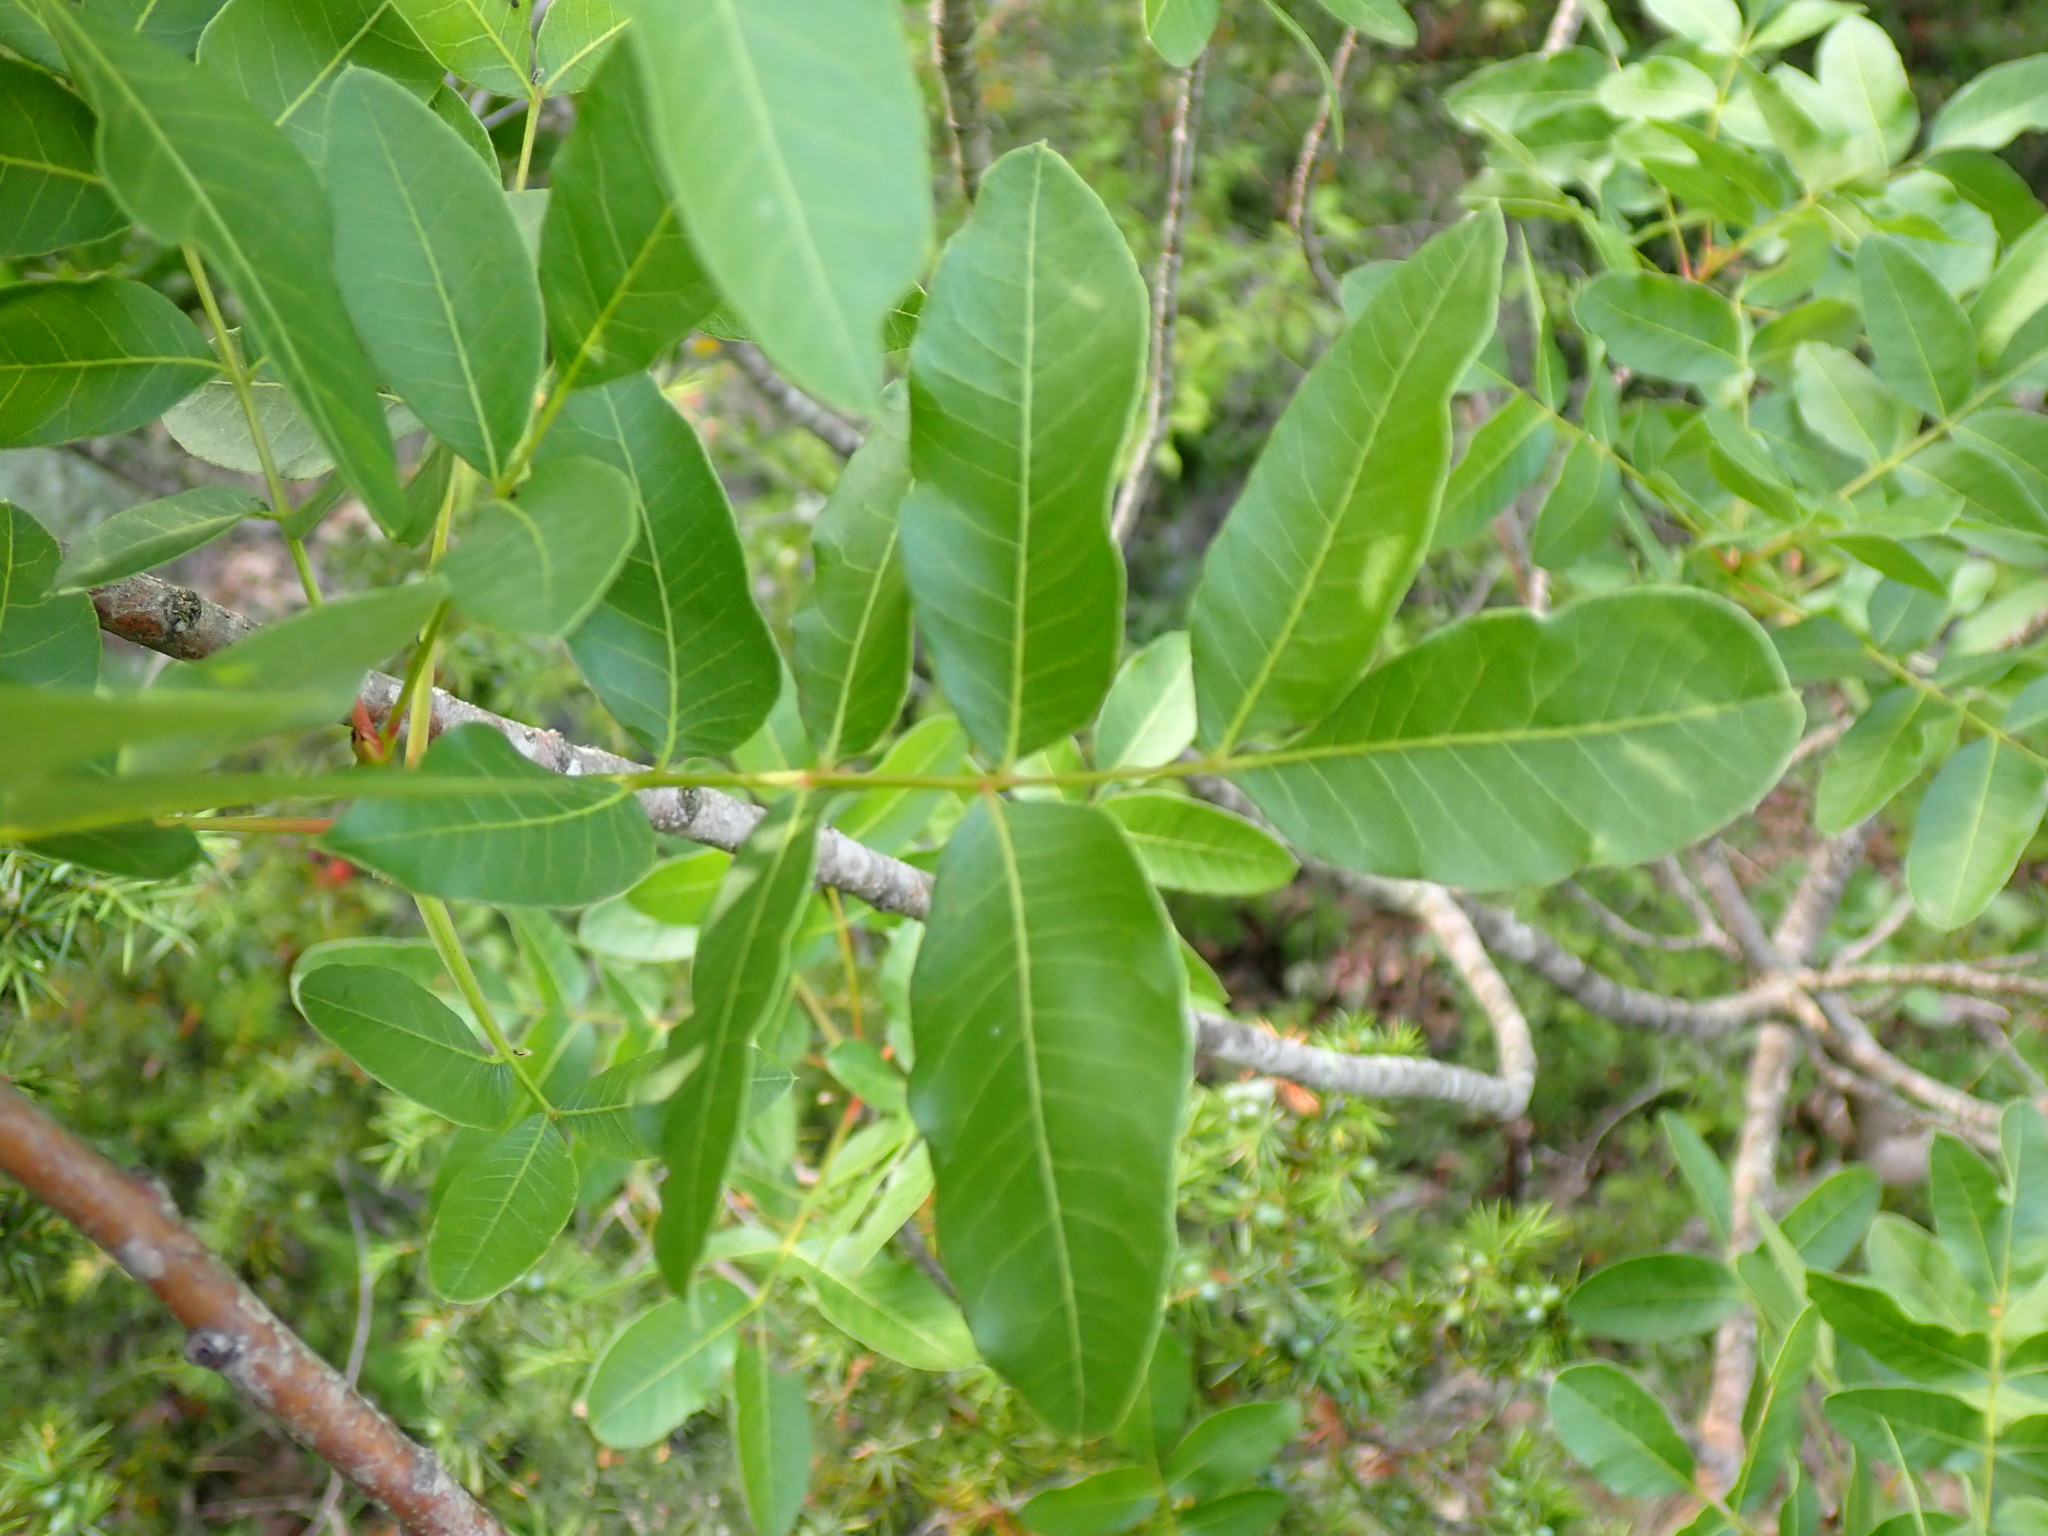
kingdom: Plantae
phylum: Tracheophyta
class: Magnoliopsida
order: Sapindales
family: Anacardiaceae
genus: Pistacia
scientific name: Pistacia terebinthus
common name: Terebinth
